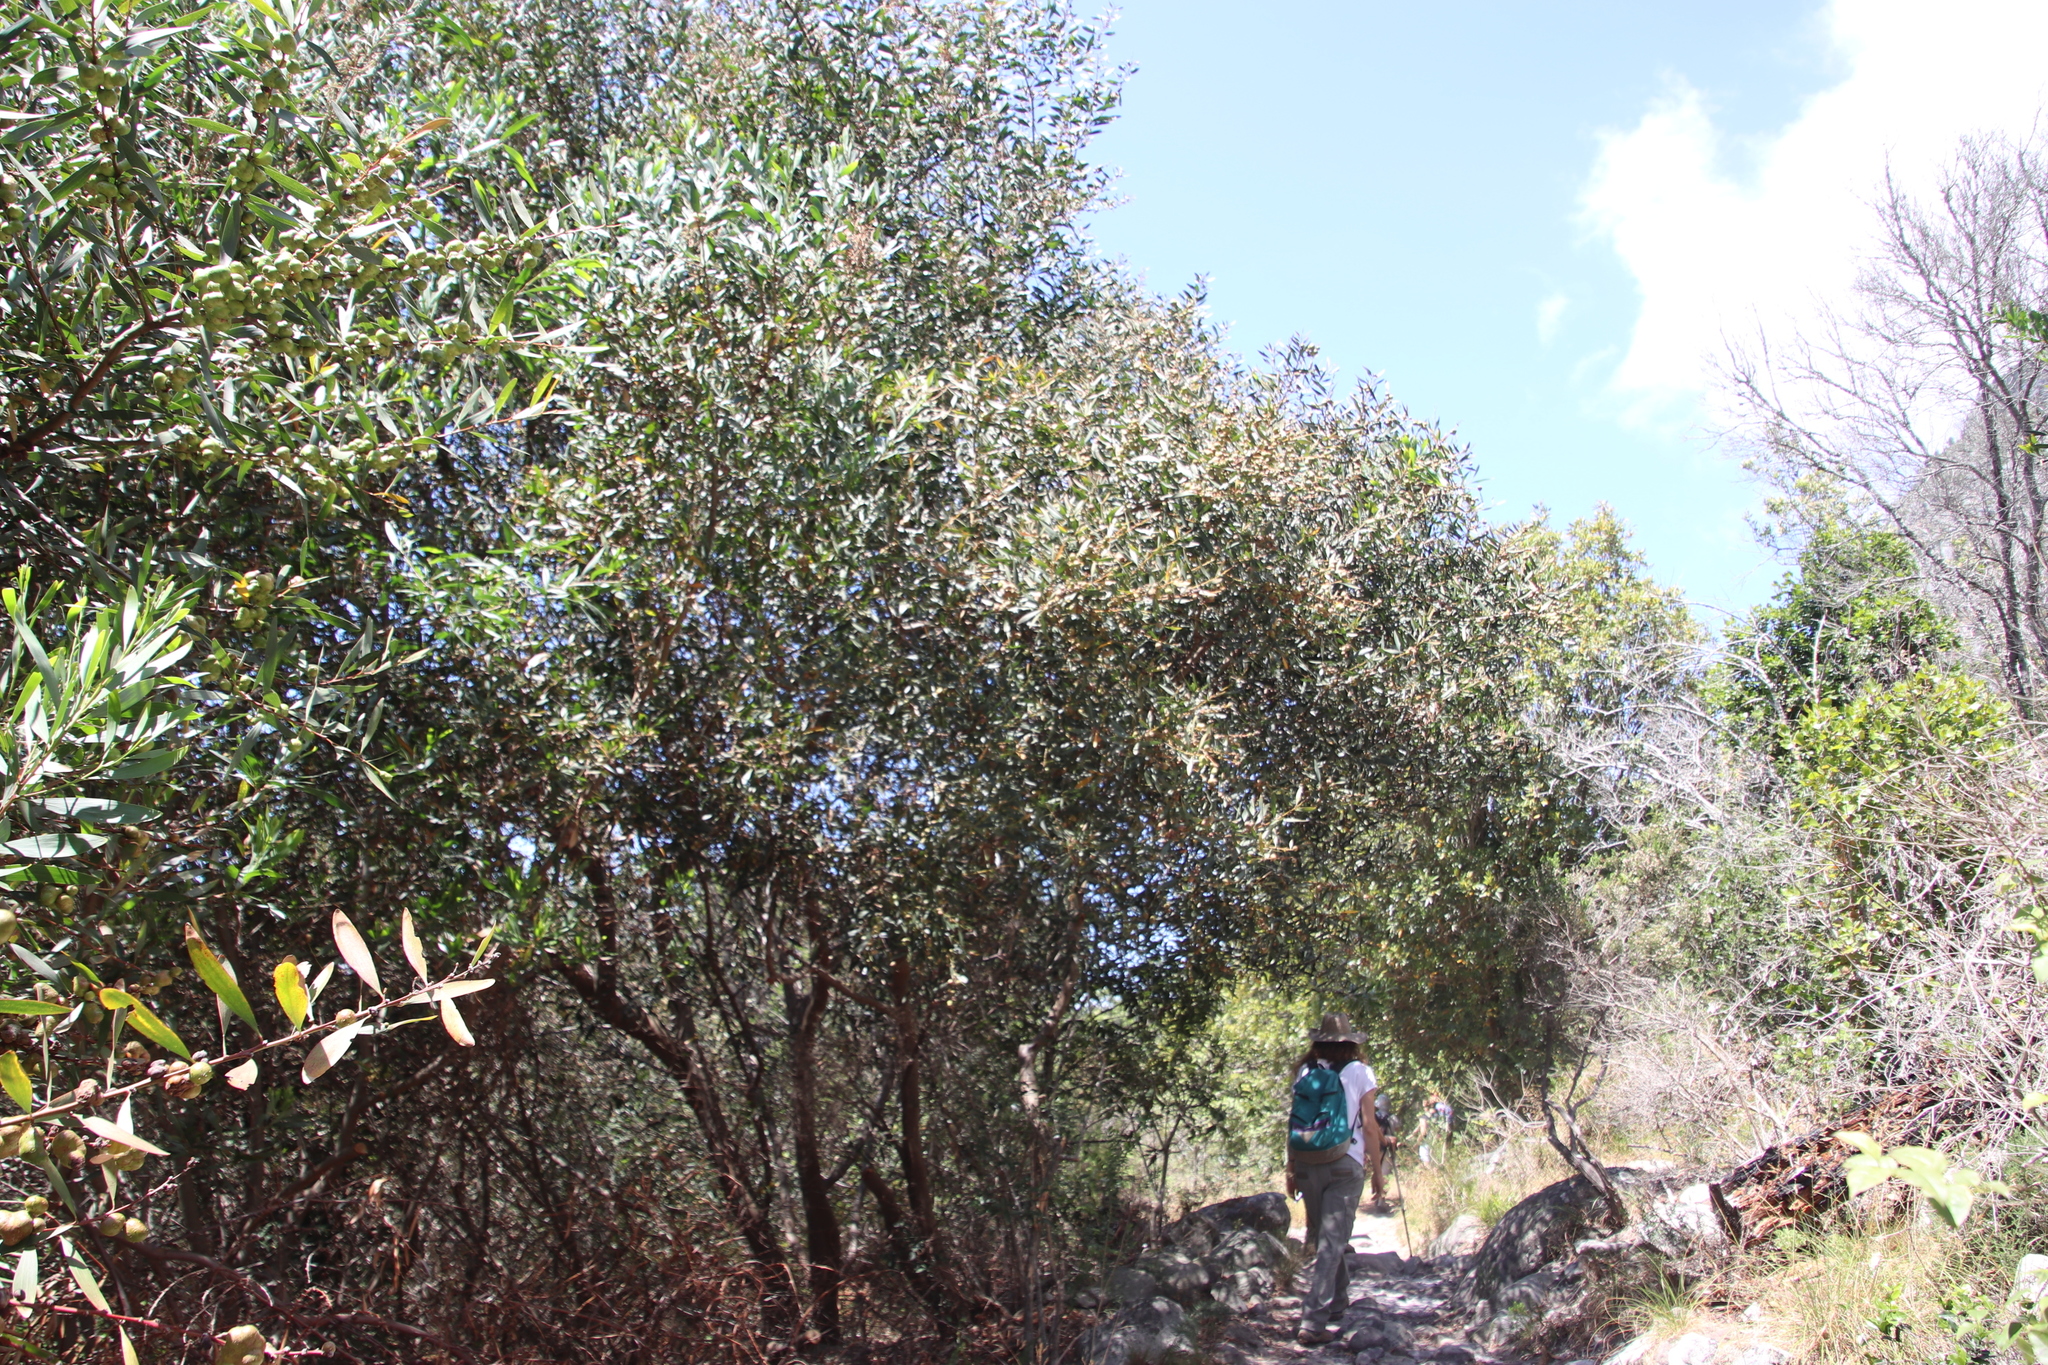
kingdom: Plantae
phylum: Tracheophyta
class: Magnoliopsida
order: Fabales
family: Fabaceae
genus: Acacia
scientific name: Acacia longifolia
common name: Sydney golden wattle
